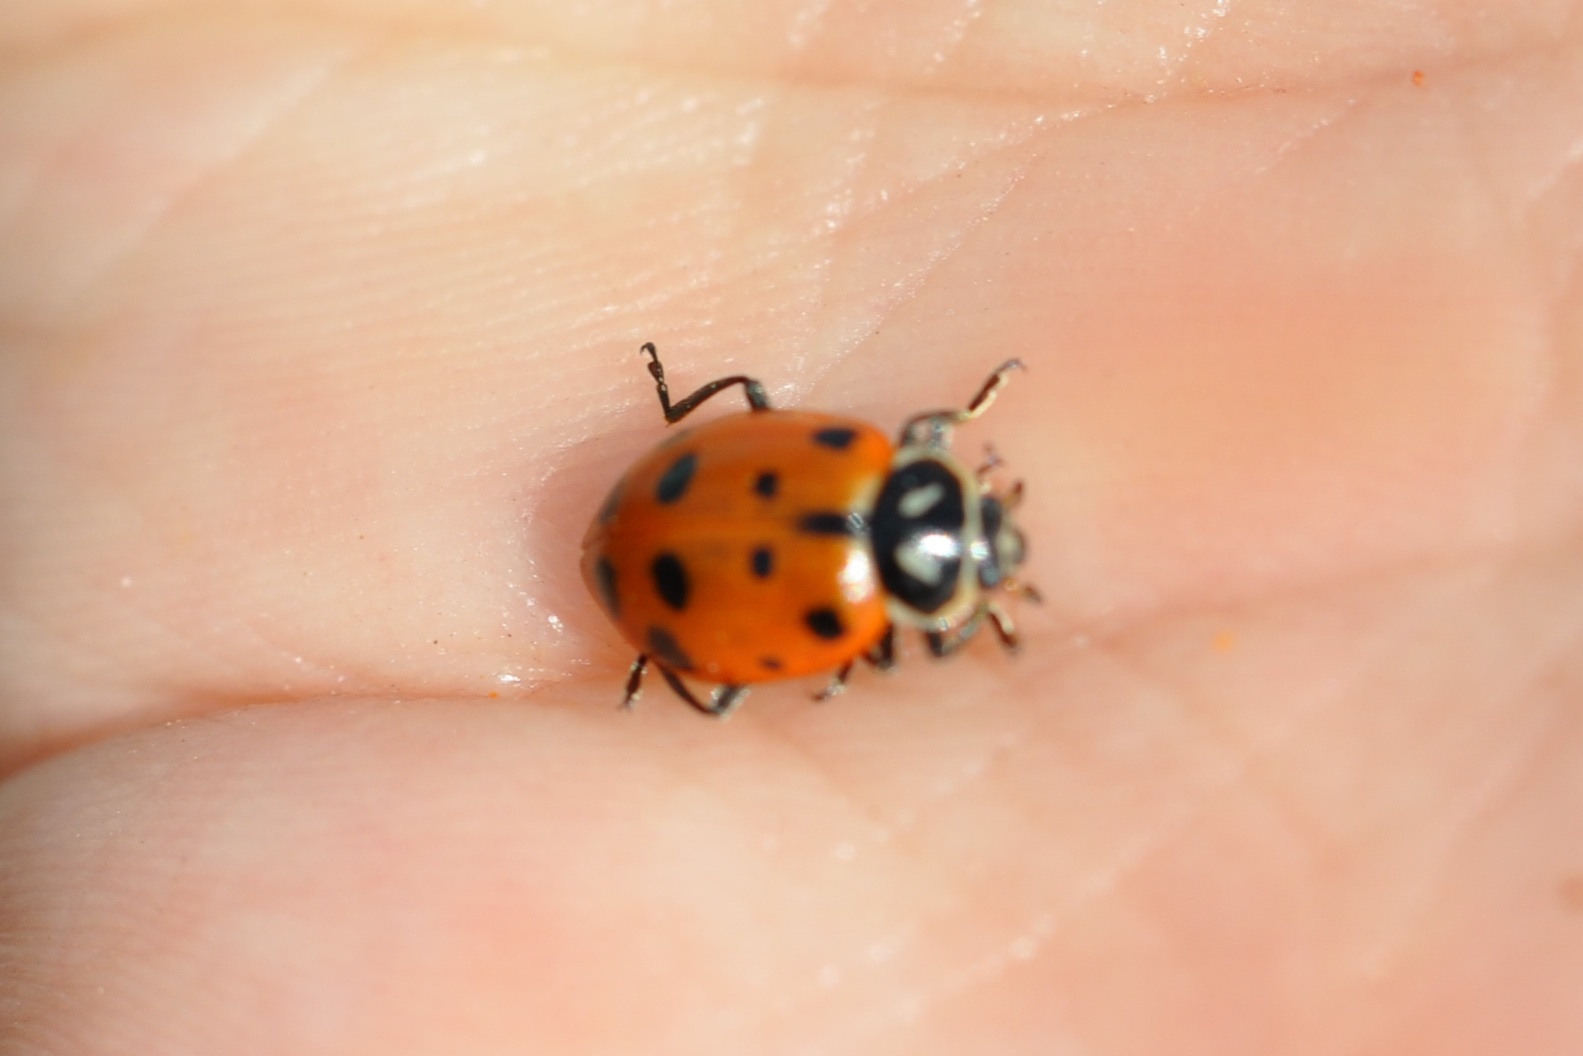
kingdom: Animalia
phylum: Arthropoda
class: Insecta
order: Coleoptera
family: Coccinellidae
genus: Hippodamia
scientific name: Hippodamia convergens
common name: Convergent lady beetle
